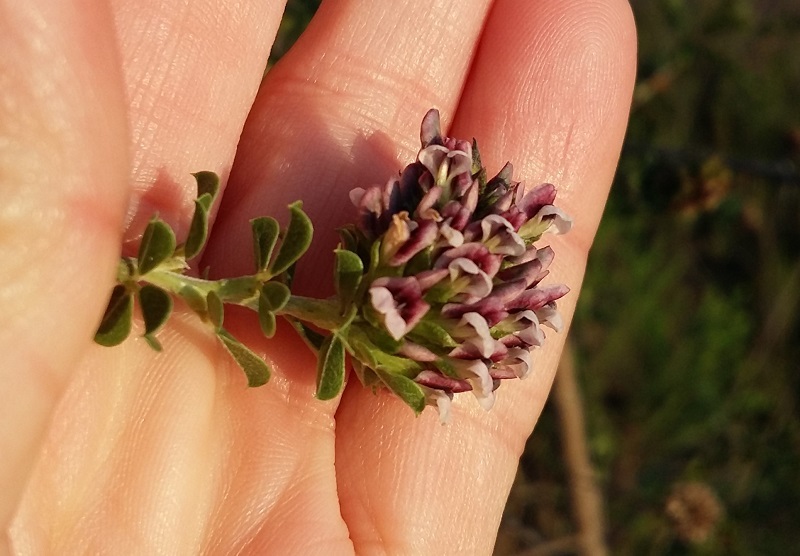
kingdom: Plantae
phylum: Tracheophyta
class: Magnoliopsida
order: Fabales
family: Fabaceae
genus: Psoralea
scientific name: Psoralea stachyera
